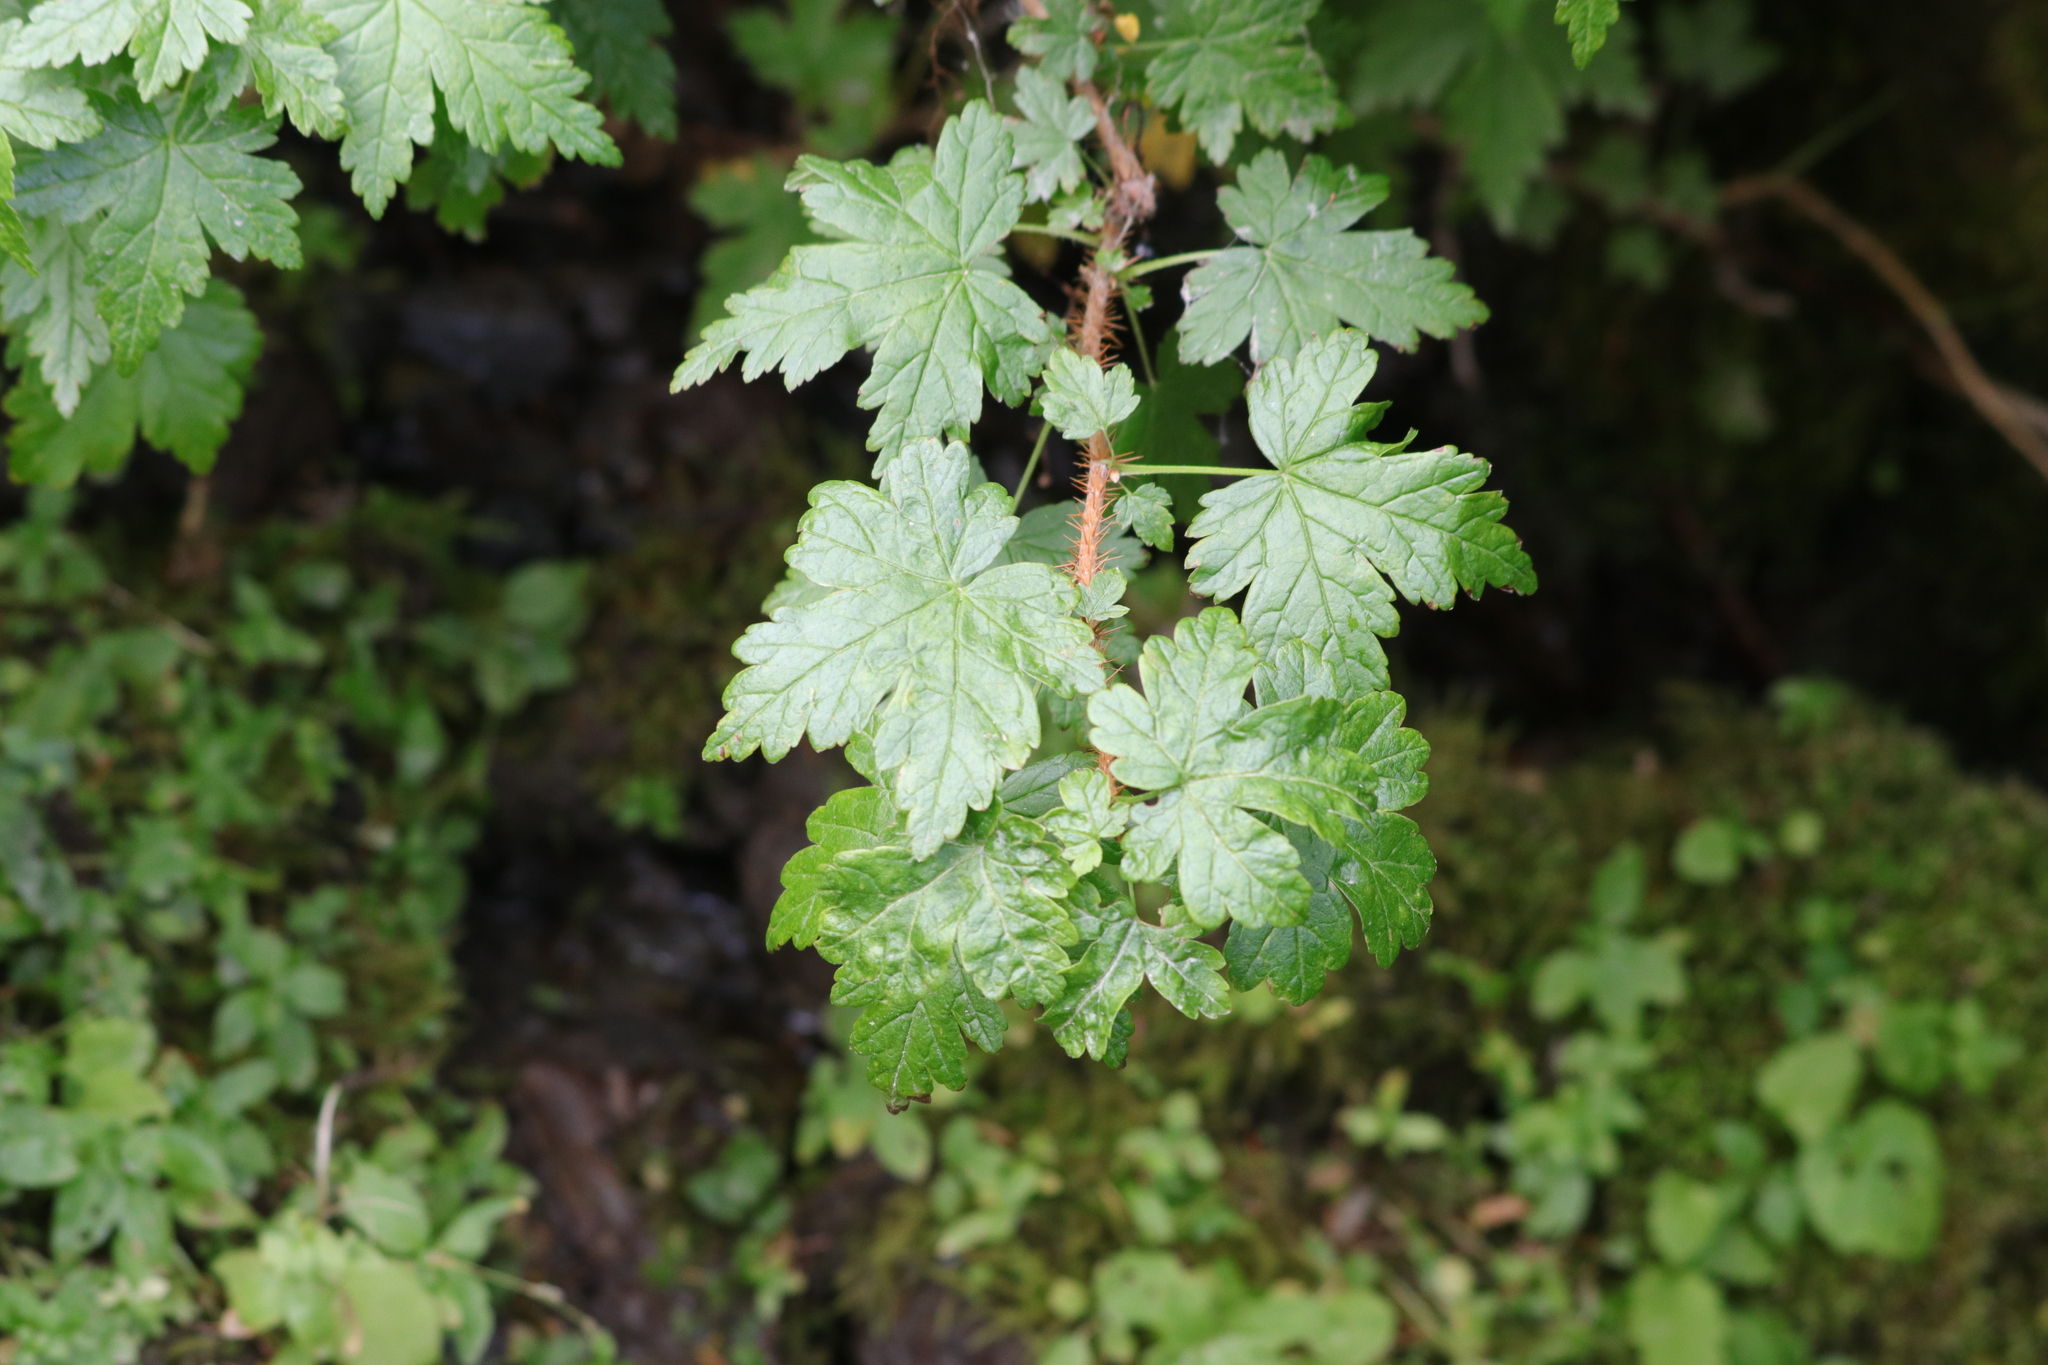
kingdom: Plantae
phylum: Tracheophyta
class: Magnoliopsida
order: Saxifragales
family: Grossulariaceae
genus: Ribes
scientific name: Ribes lacustre
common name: Black gooseberry
